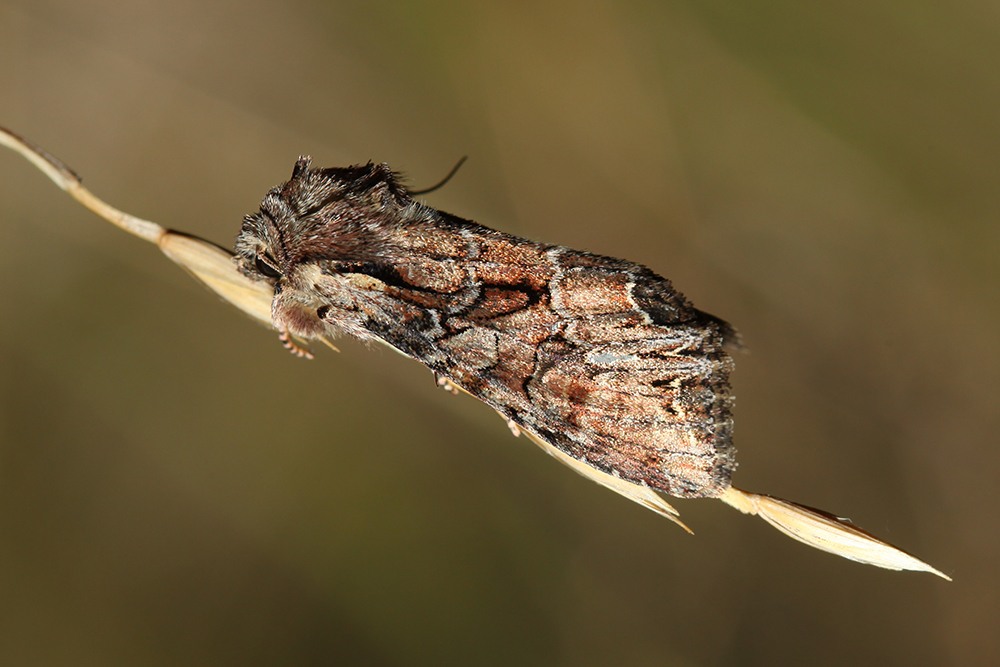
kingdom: Animalia
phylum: Arthropoda
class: Insecta
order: Lepidoptera
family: Noctuidae
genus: Lacanobia
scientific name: Lacanobia thalassina
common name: Pale-shouldered brocade
